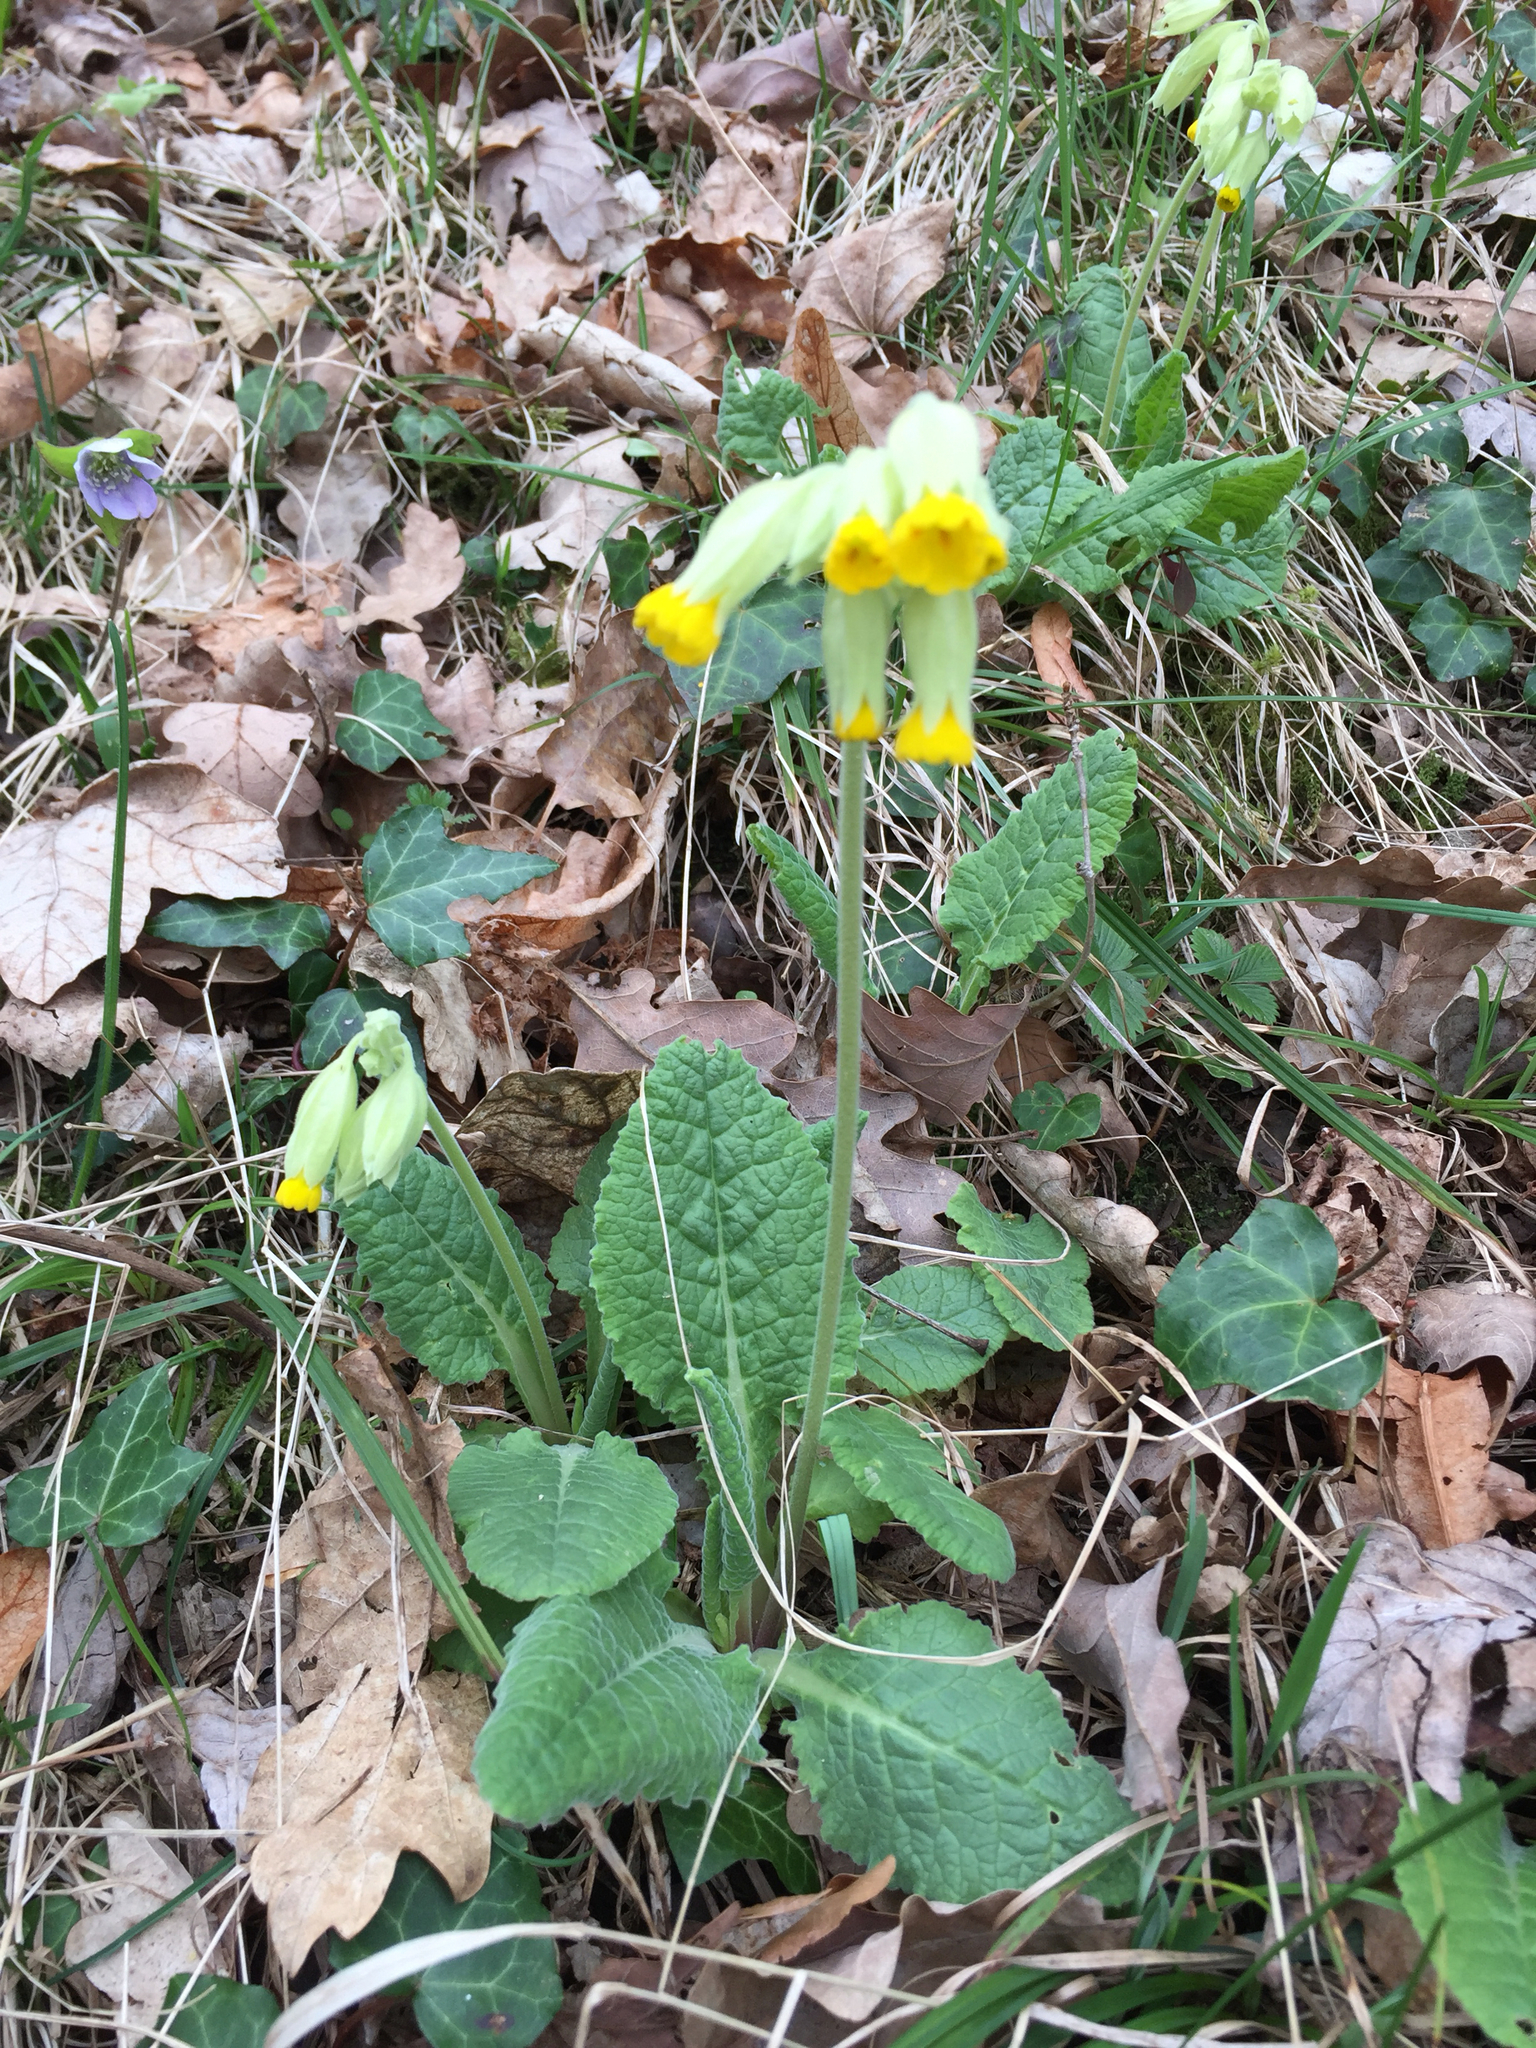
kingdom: Plantae
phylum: Tracheophyta
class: Magnoliopsida
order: Ericales
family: Primulaceae
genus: Primula
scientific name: Primula veris
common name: Cowslip
